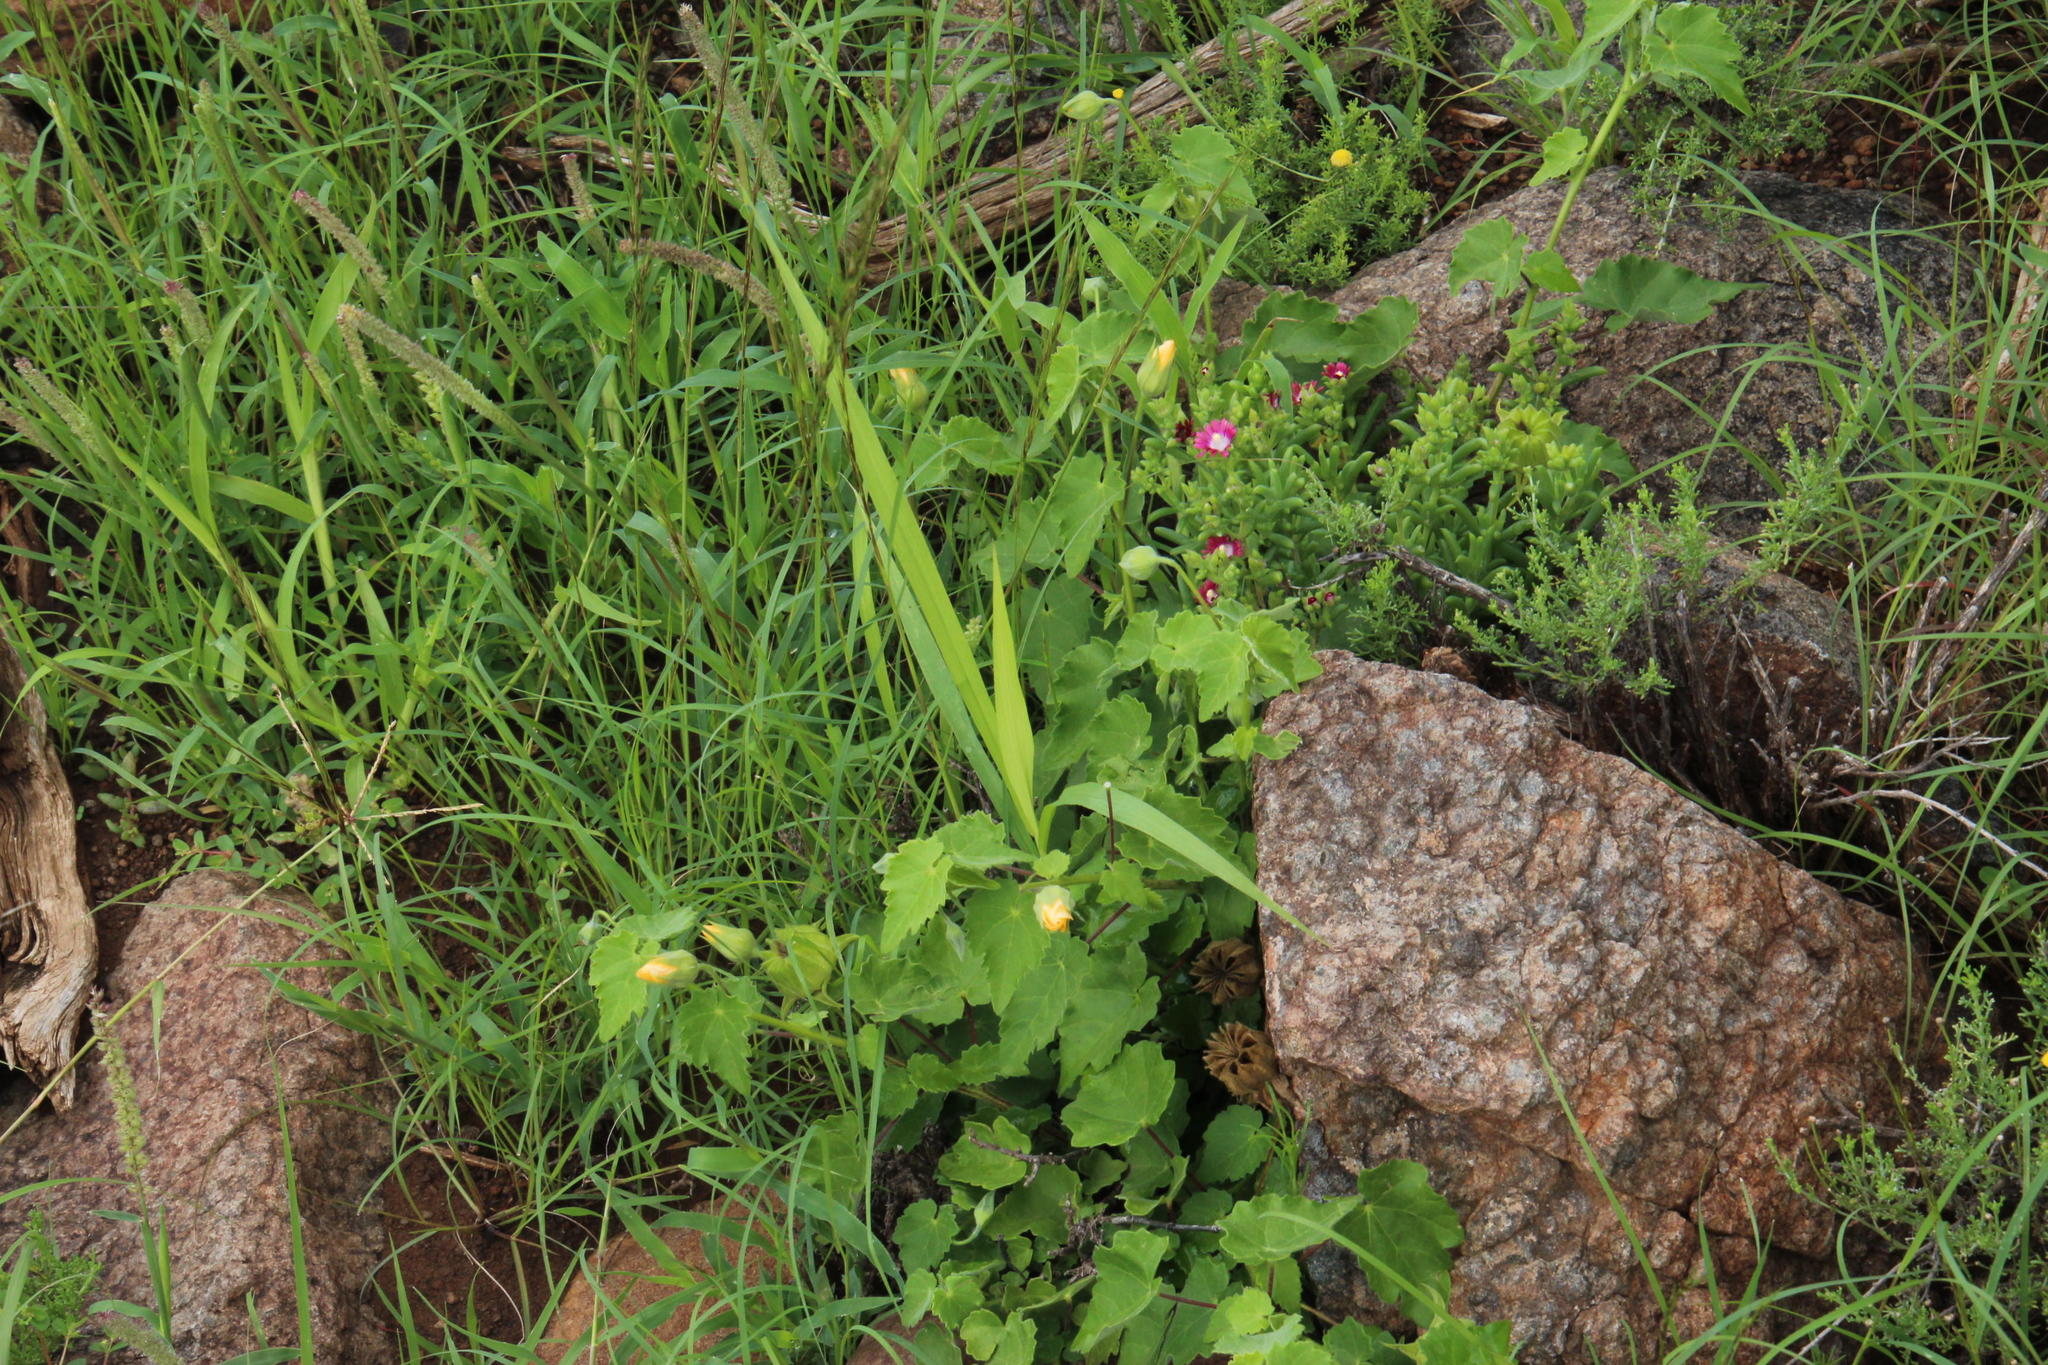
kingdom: Plantae
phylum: Tracheophyta
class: Magnoliopsida
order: Malvales
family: Malvaceae
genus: Abutilon
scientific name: Abutilon sonneratianum
